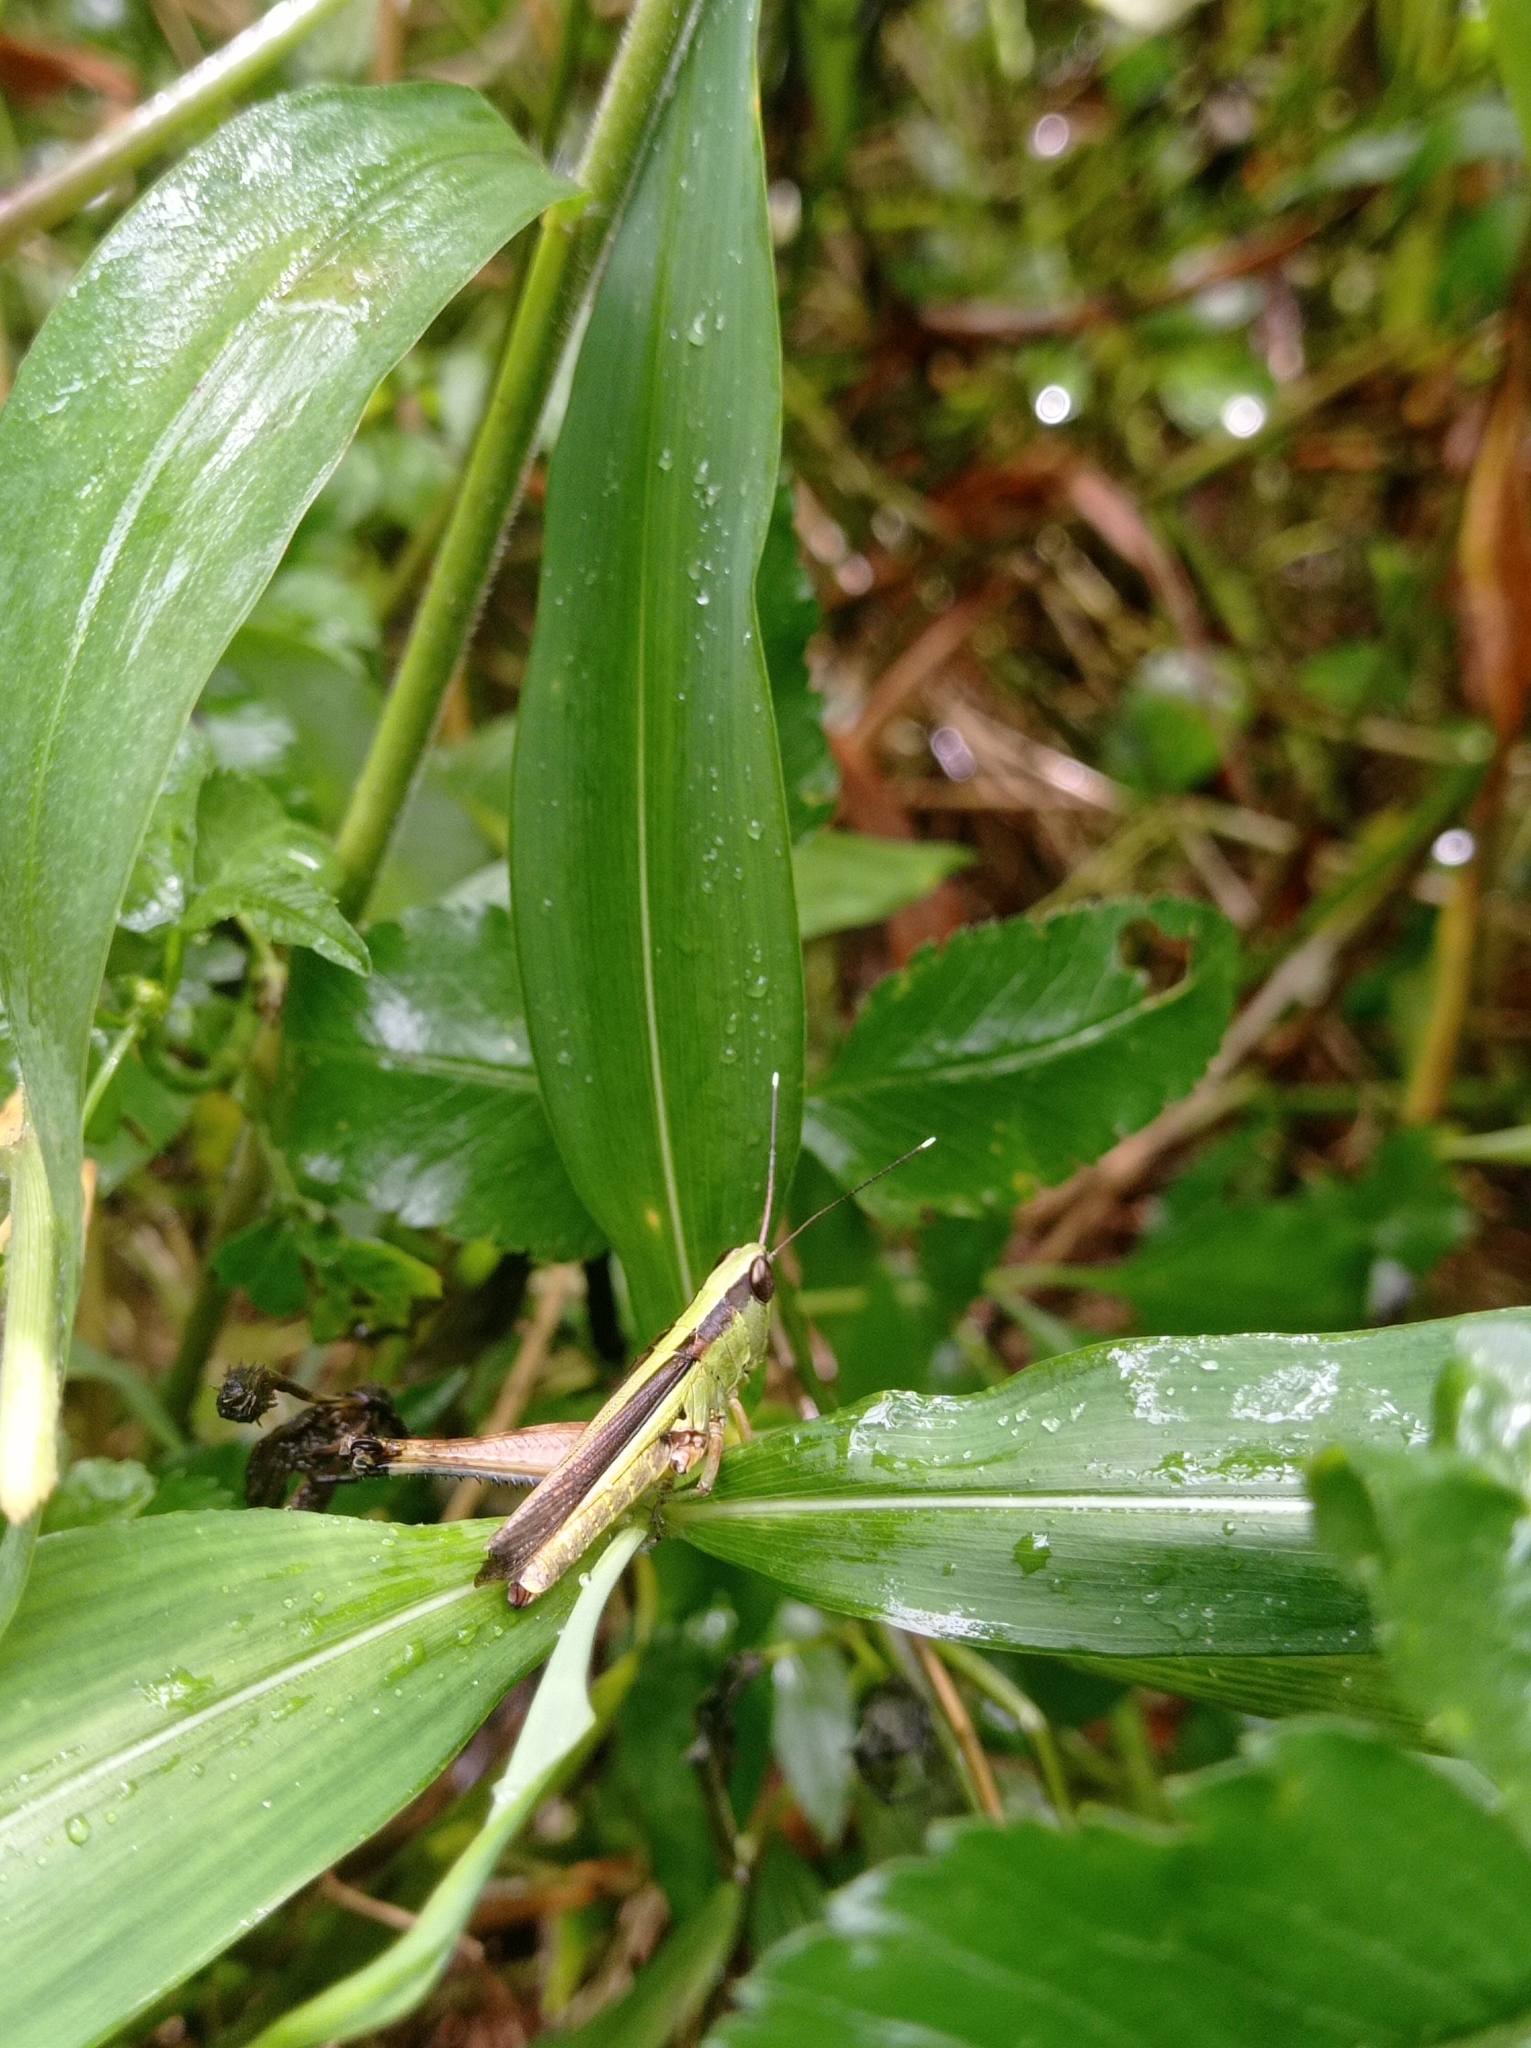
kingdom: Animalia
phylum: Arthropoda
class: Insecta
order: Orthoptera
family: Acrididae
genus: Ceracris
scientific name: Ceracris fasciata
